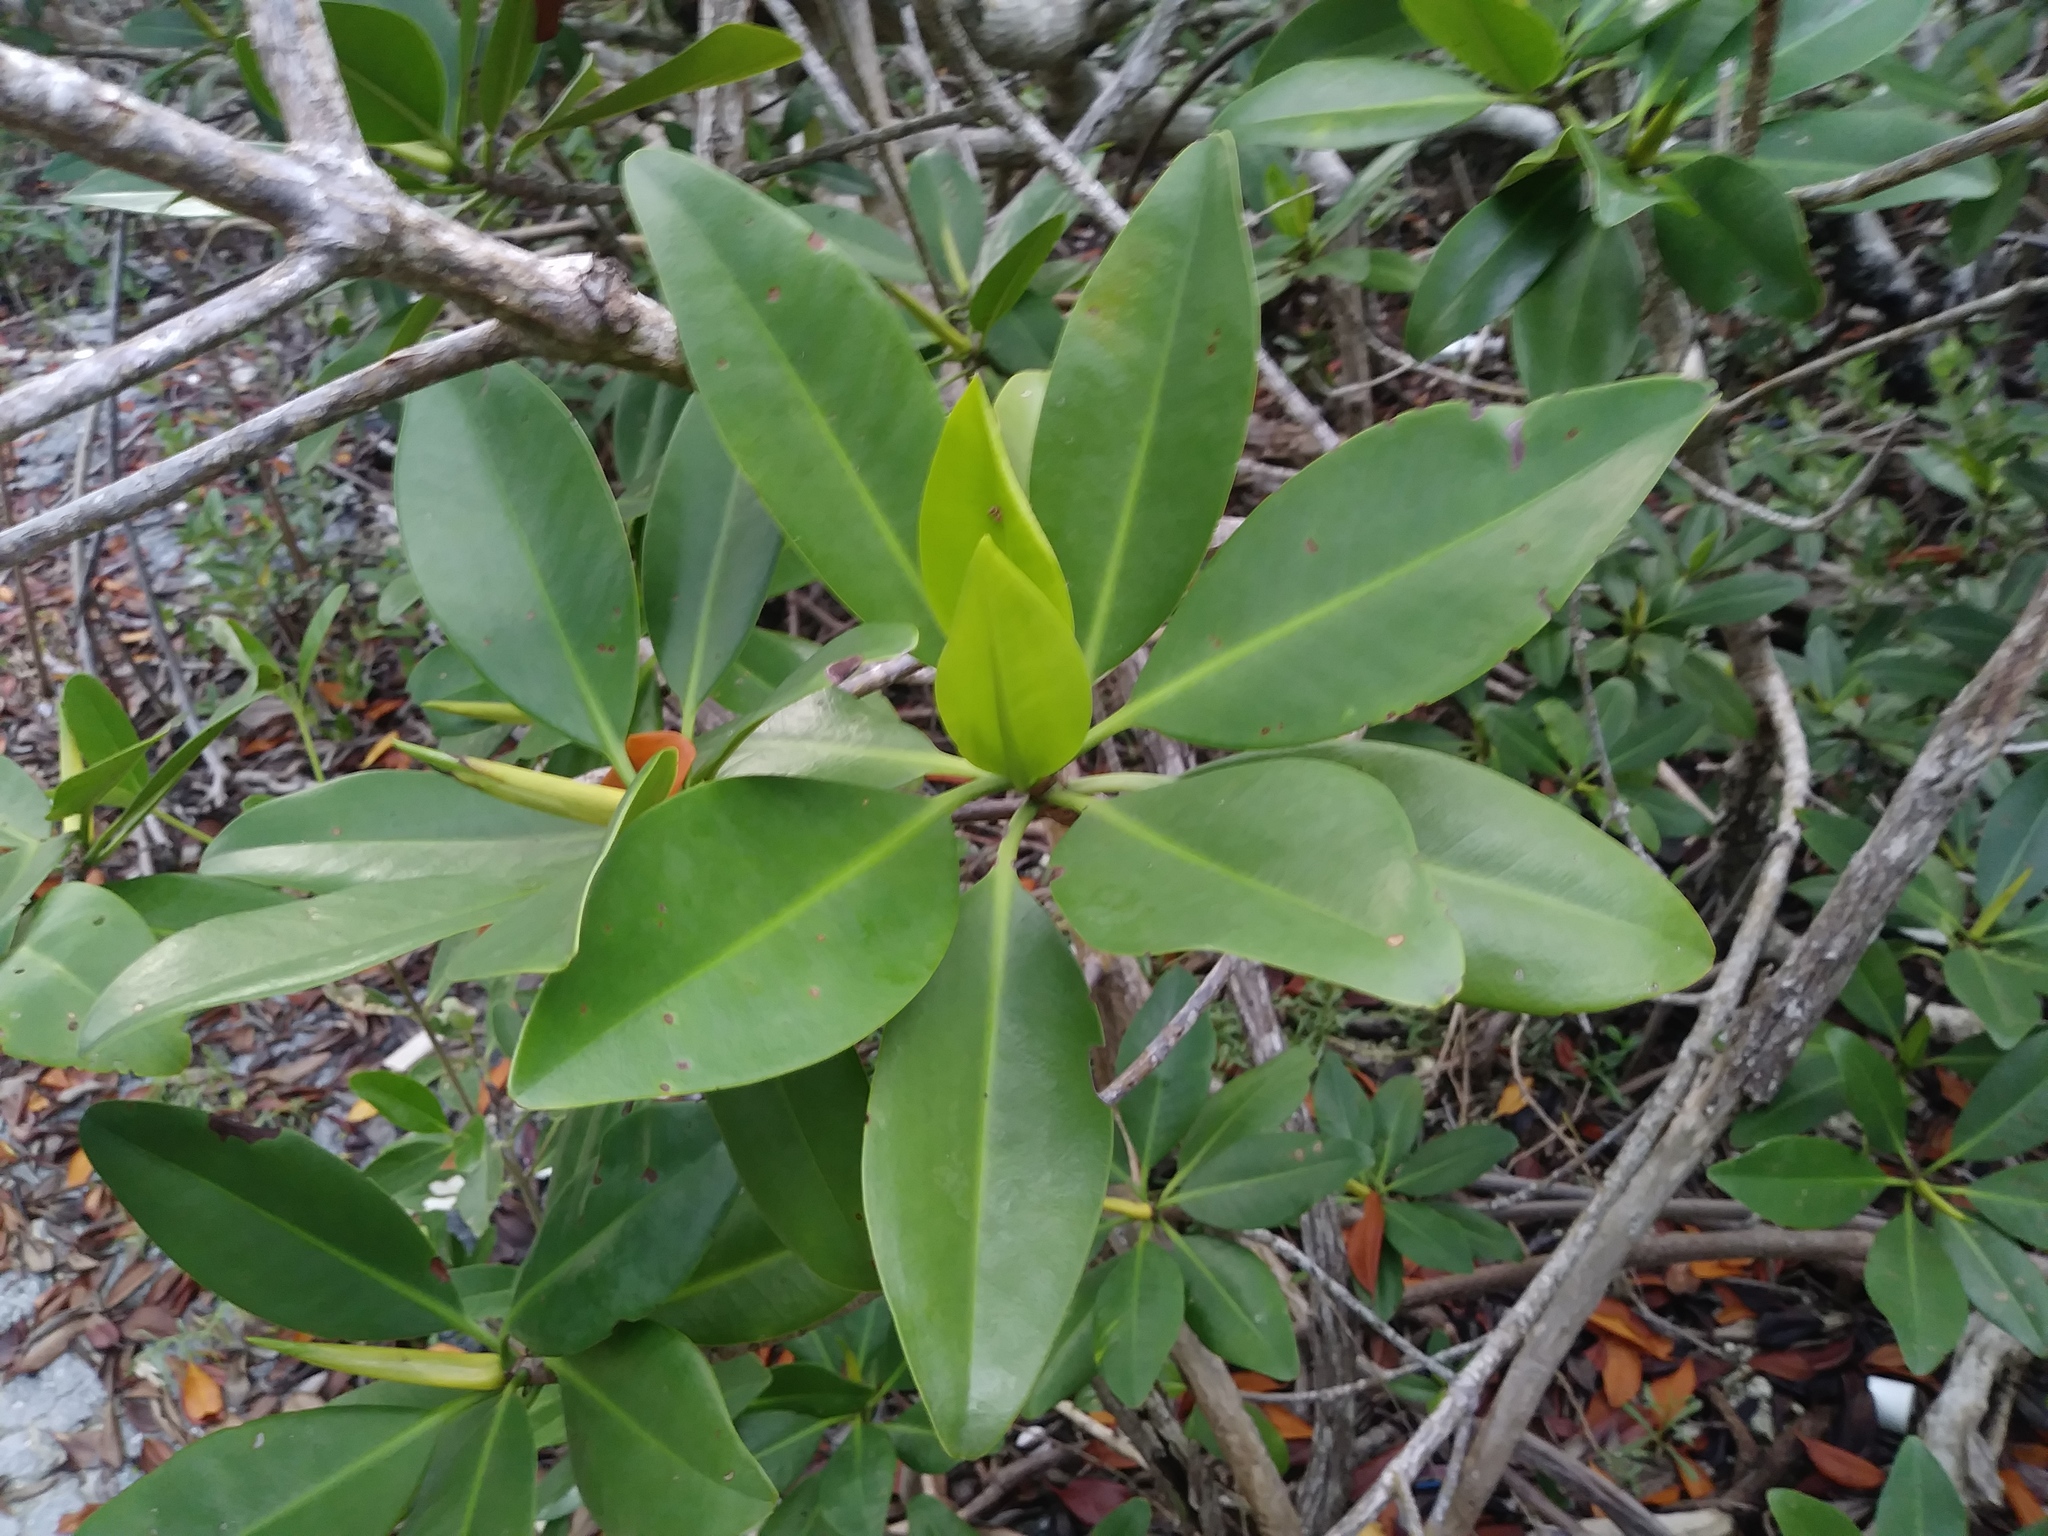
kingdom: Plantae
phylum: Tracheophyta
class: Magnoliopsida
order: Malpighiales
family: Rhizophoraceae
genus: Rhizophora
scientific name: Rhizophora mangle
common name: Red mangrove
